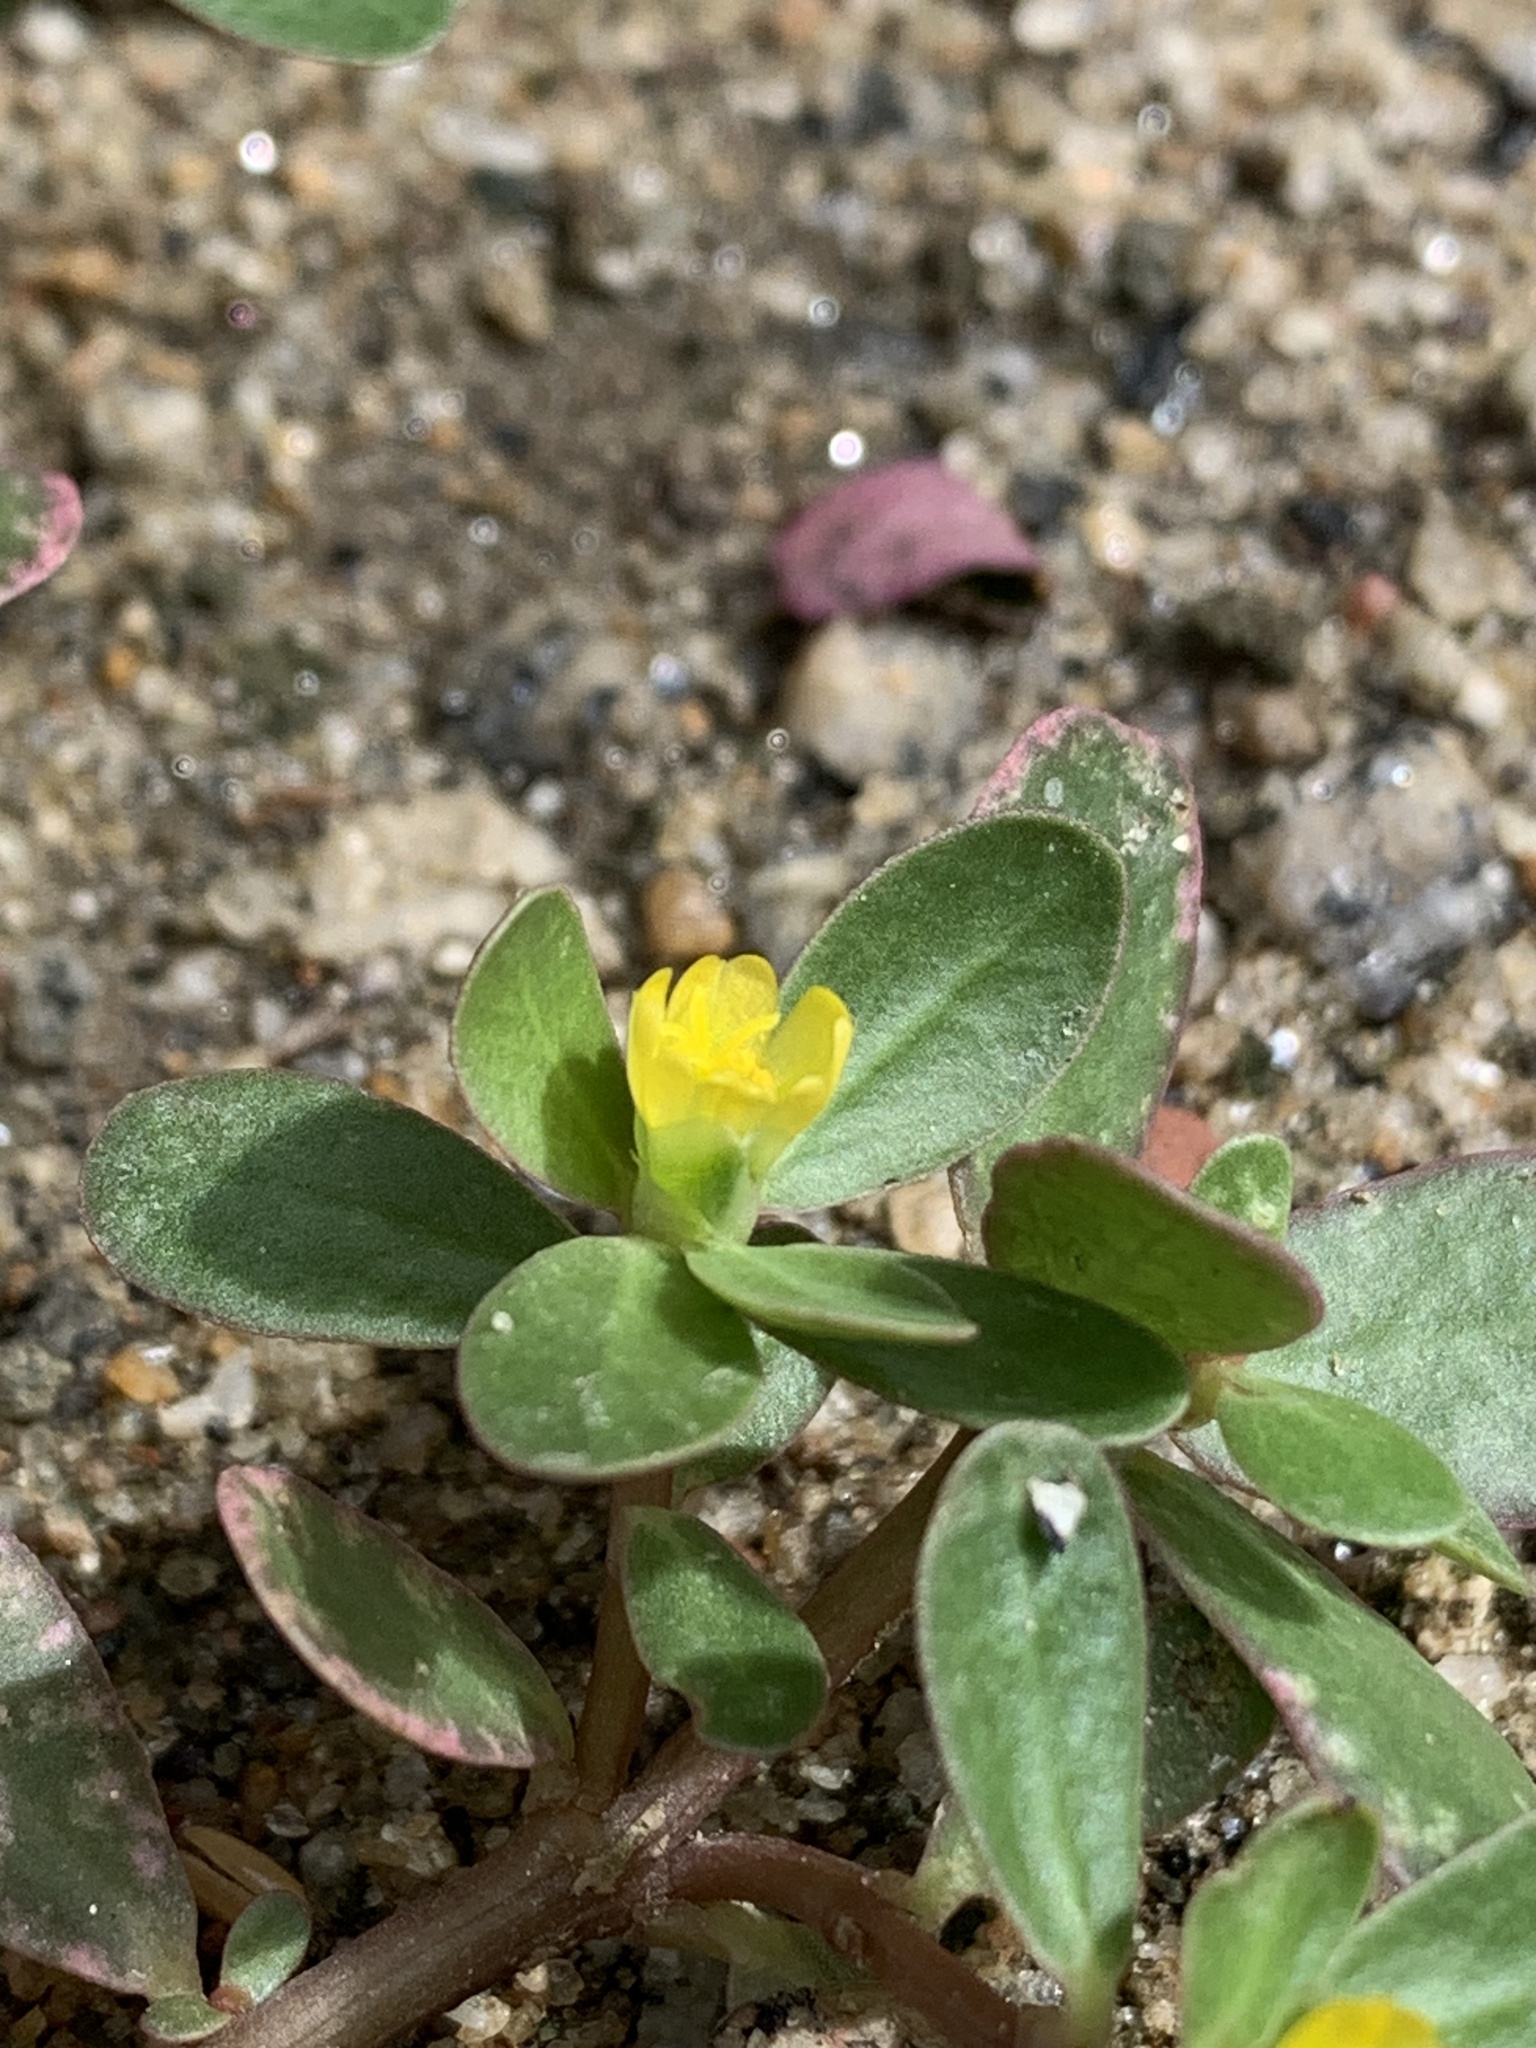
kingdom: Plantae
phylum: Tracheophyta
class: Magnoliopsida
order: Caryophyllales
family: Portulacaceae
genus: Portulaca
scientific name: Portulaca oleracea
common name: Common purslane
